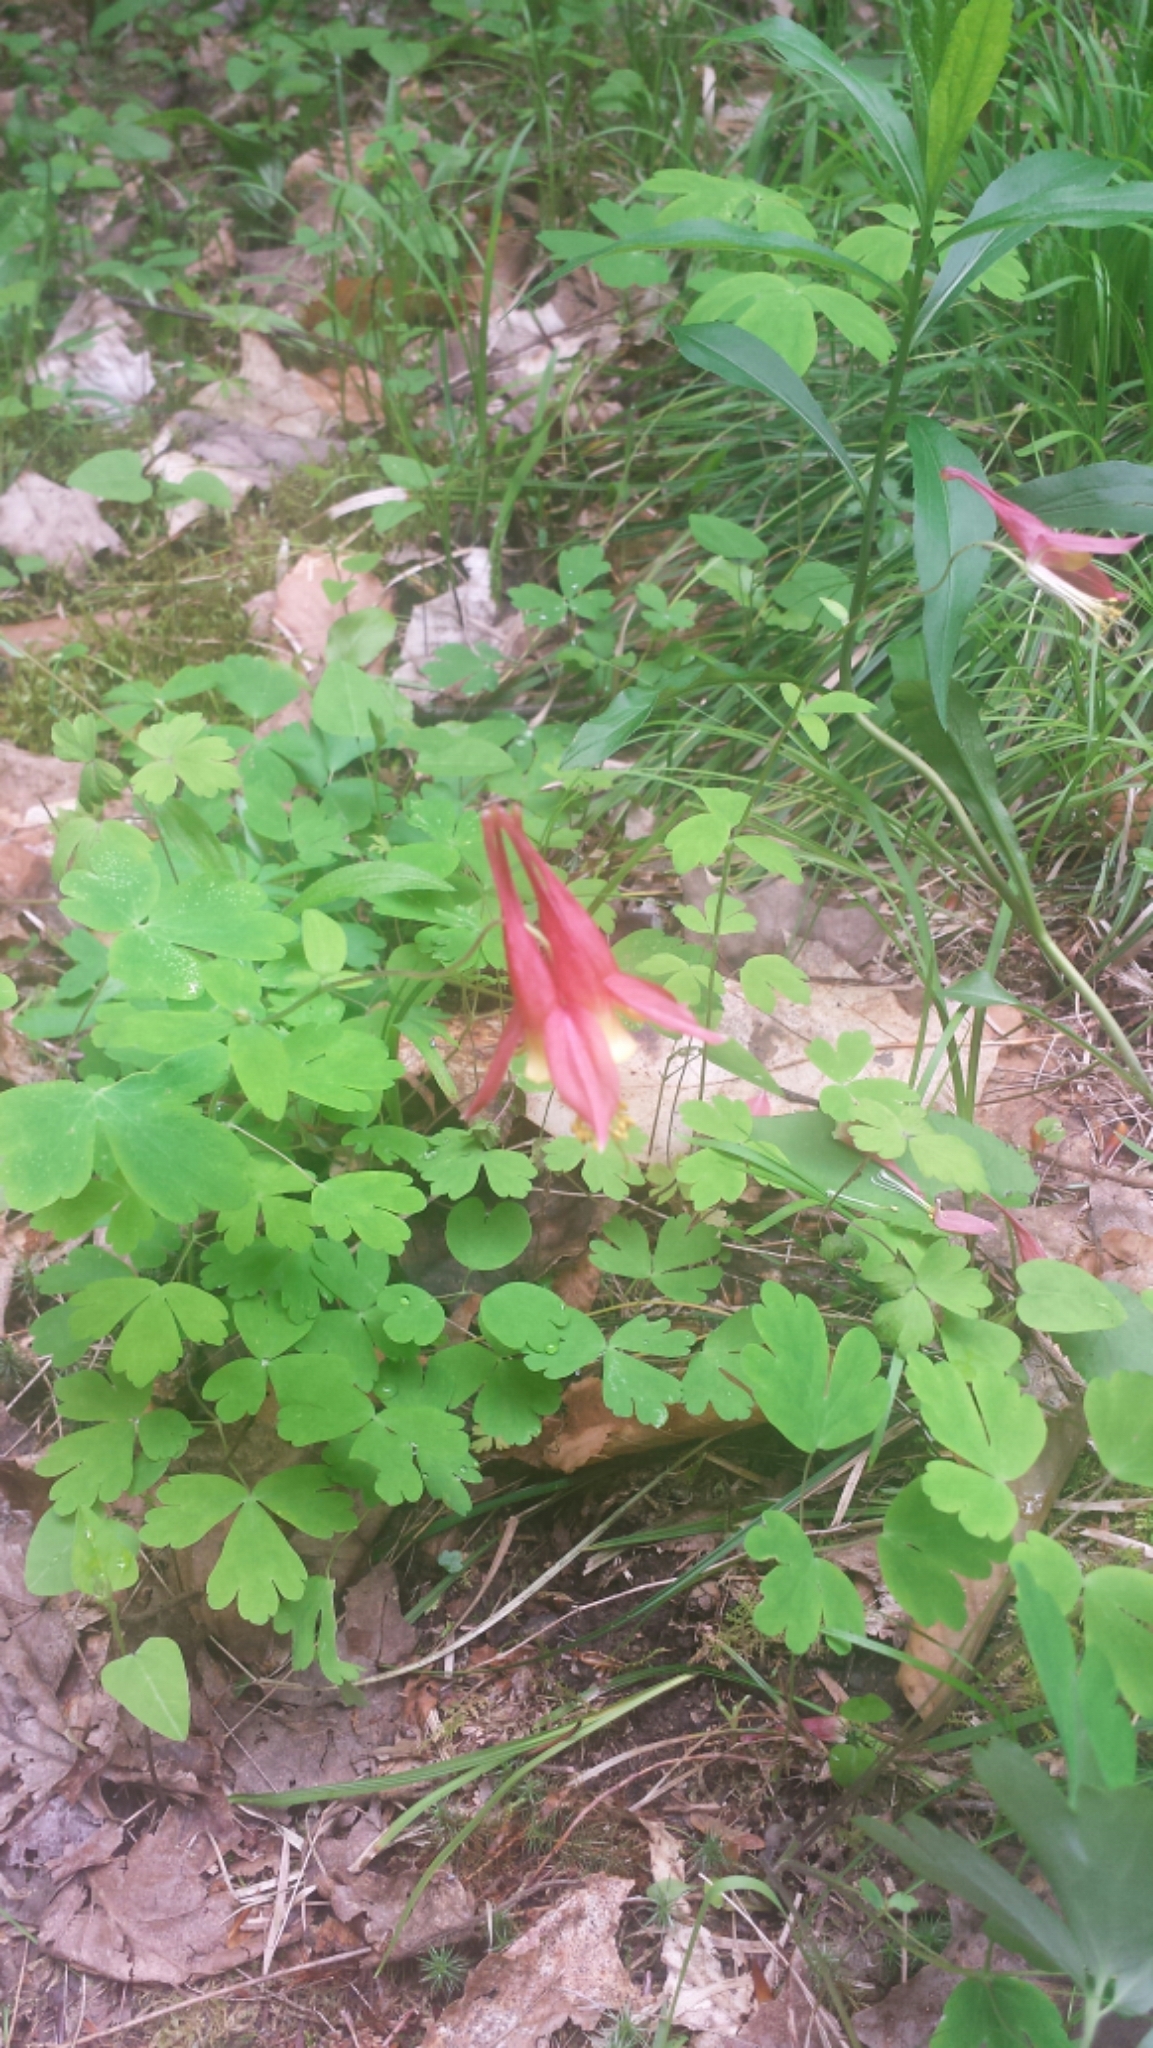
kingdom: Plantae
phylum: Tracheophyta
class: Magnoliopsida
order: Ranunculales
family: Ranunculaceae
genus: Aquilegia
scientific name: Aquilegia canadensis
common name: American columbine
